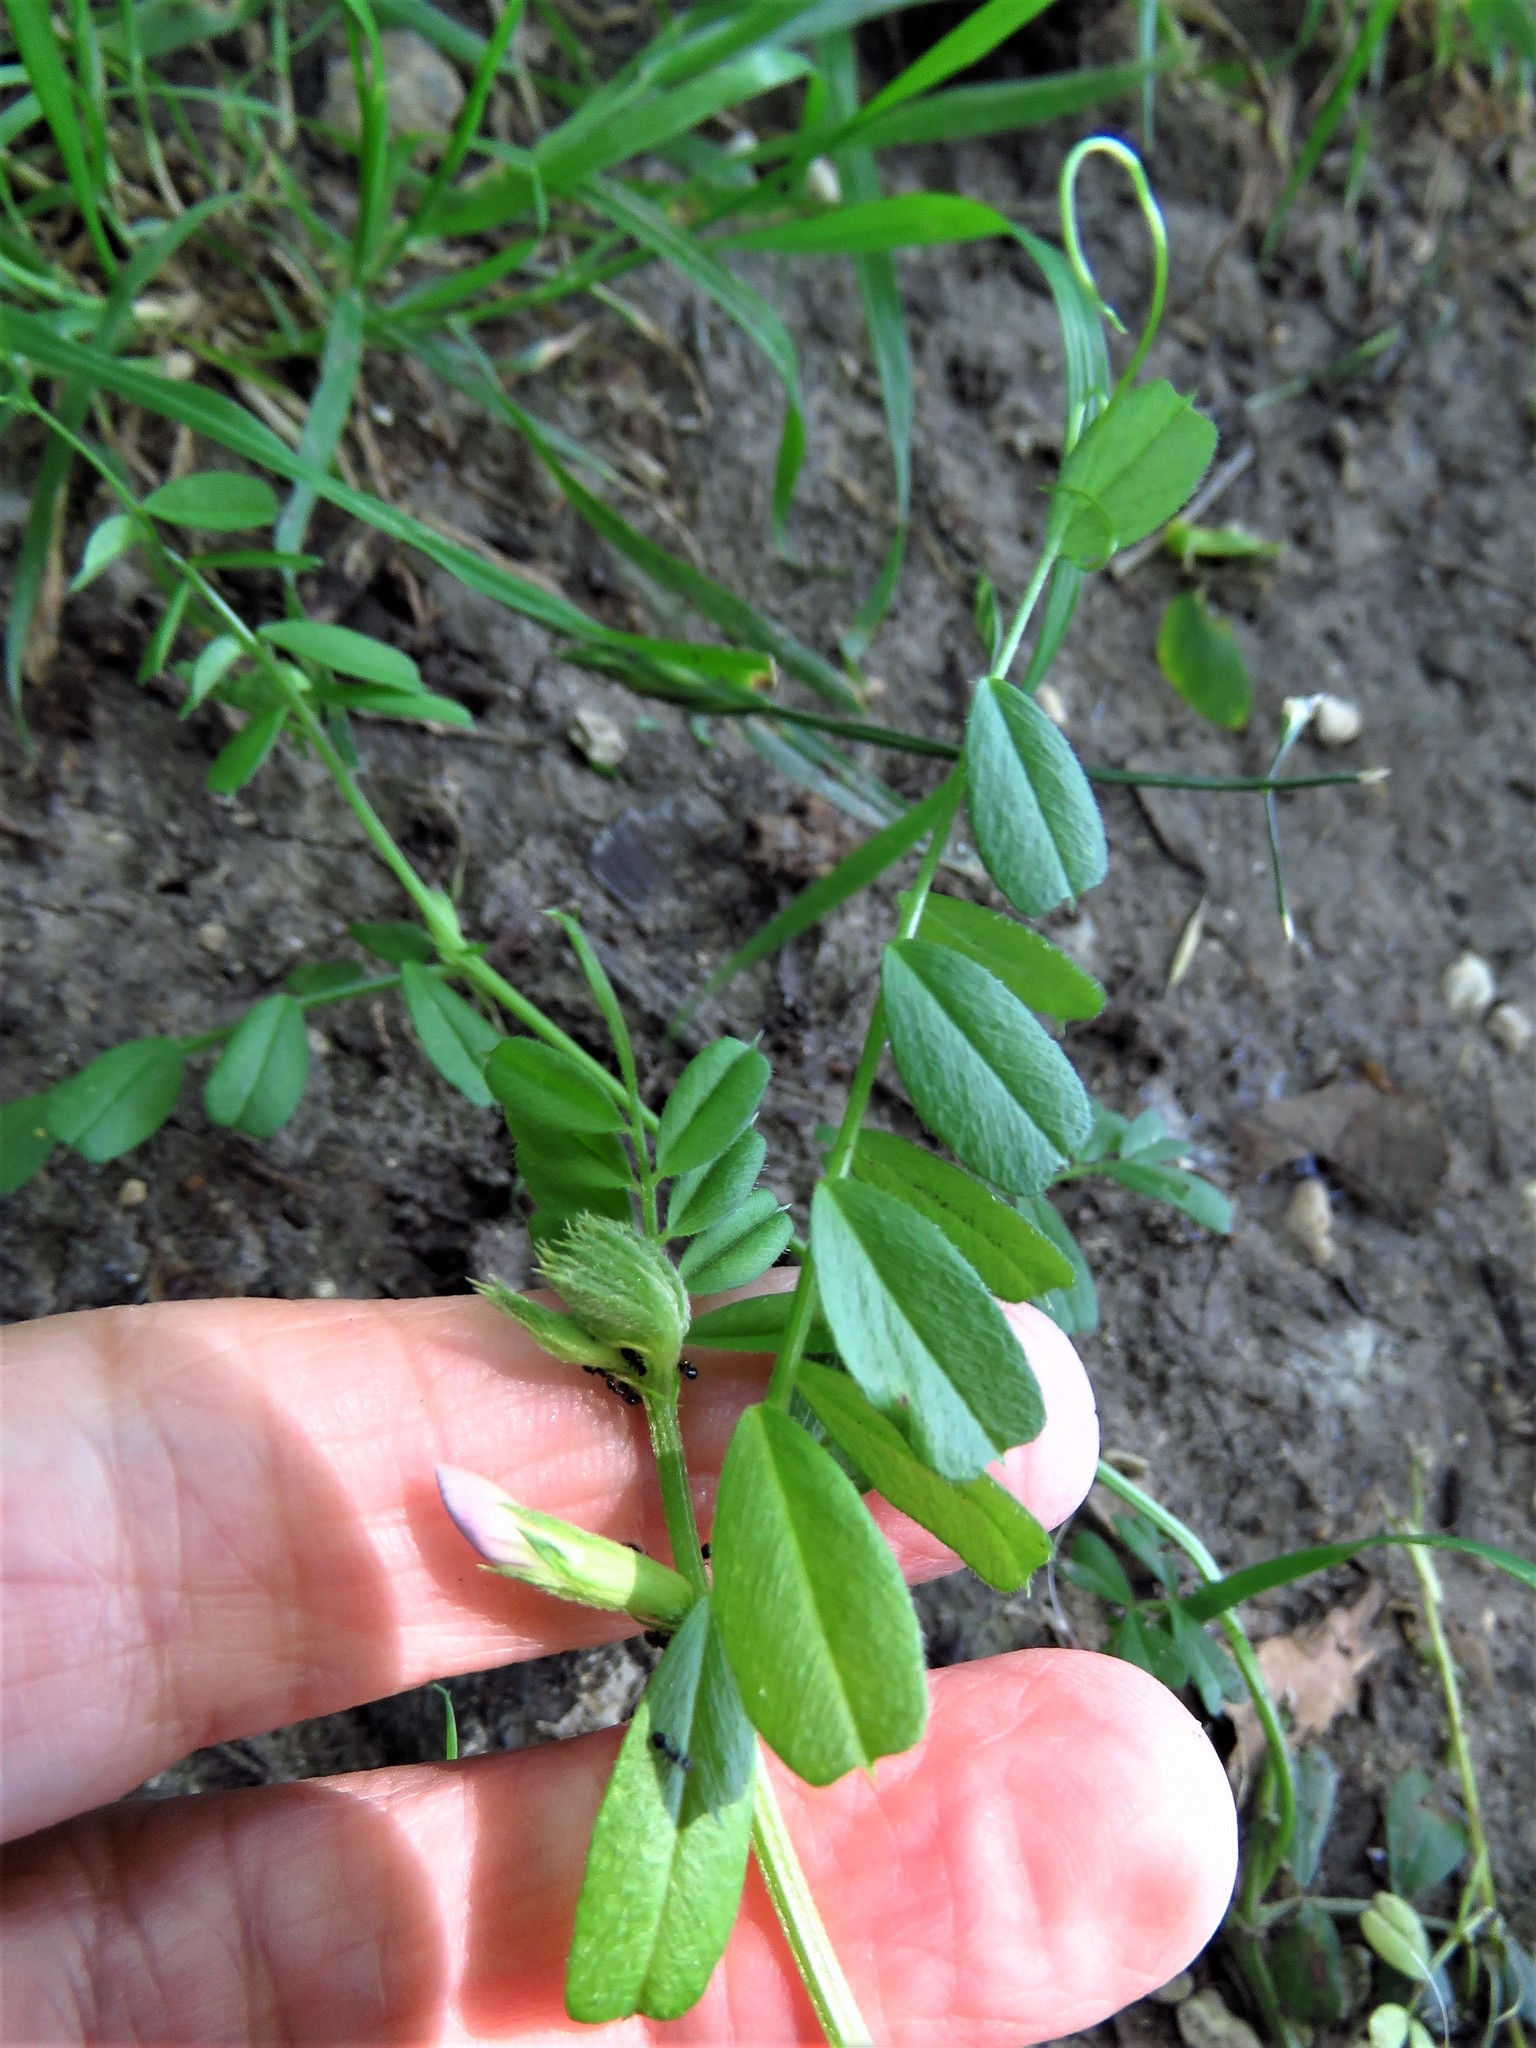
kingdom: Plantae
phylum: Tracheophyta
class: Magnoliopsida
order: Fabales
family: Fabaceae
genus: Vicia
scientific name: Vicia sativa
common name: Garden vetch
